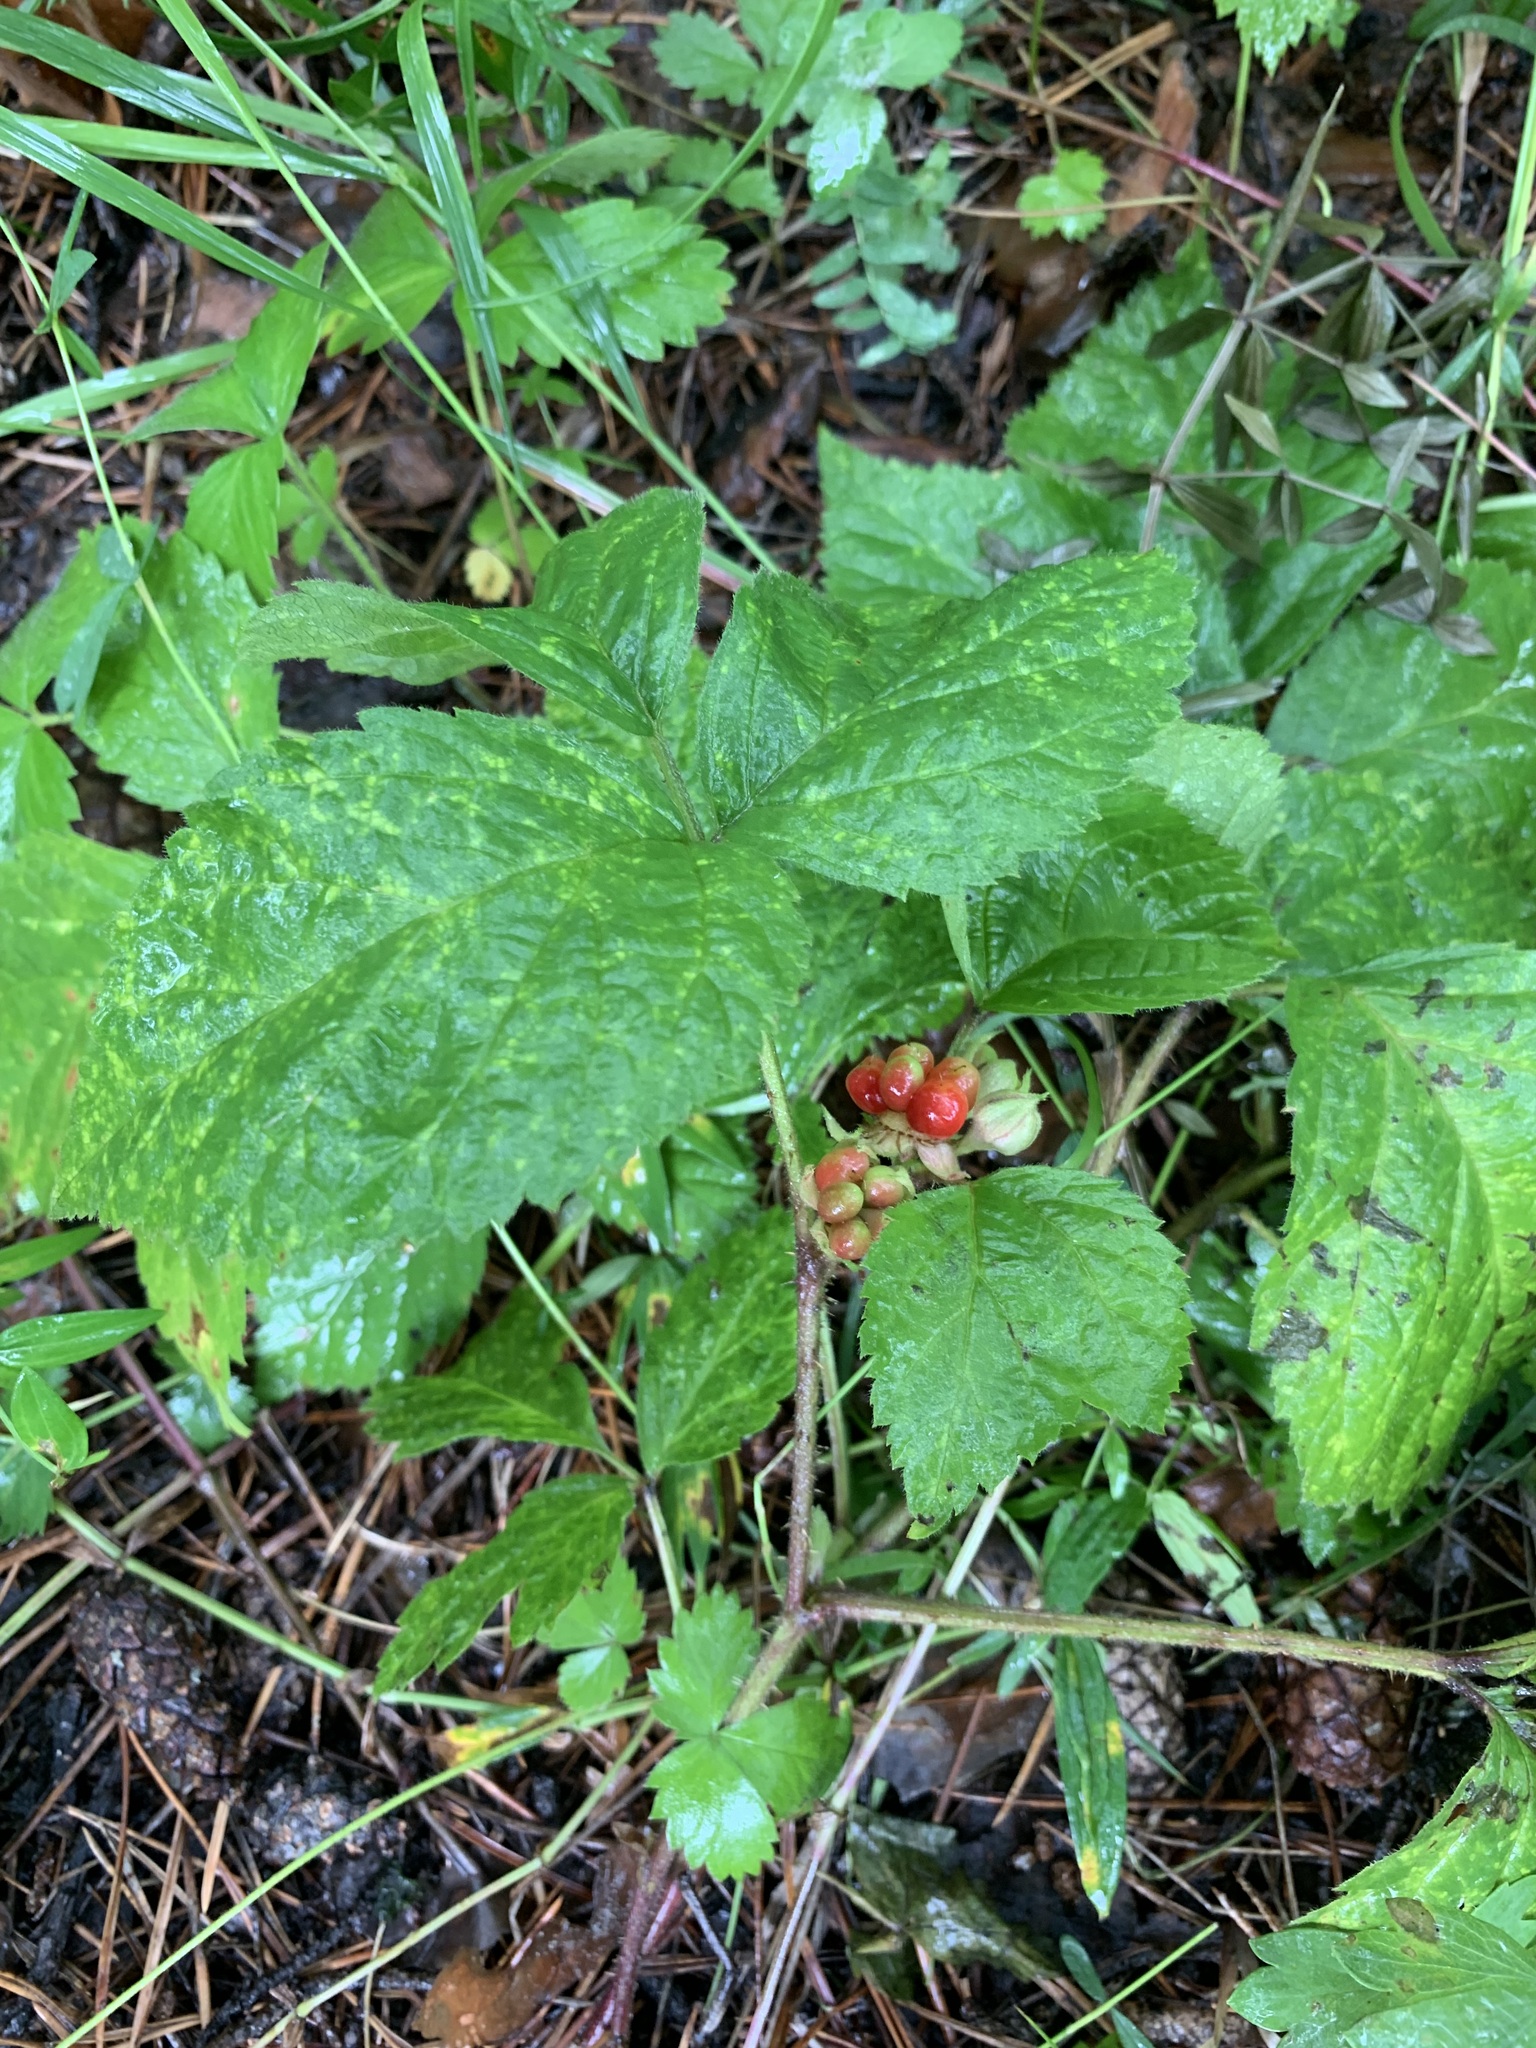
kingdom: Plantae
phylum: Tracheophyta
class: Magnoliopsida
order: Rosales
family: Rosaceae
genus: Rubus
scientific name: Rubus saxatilis
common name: Stone bramble
